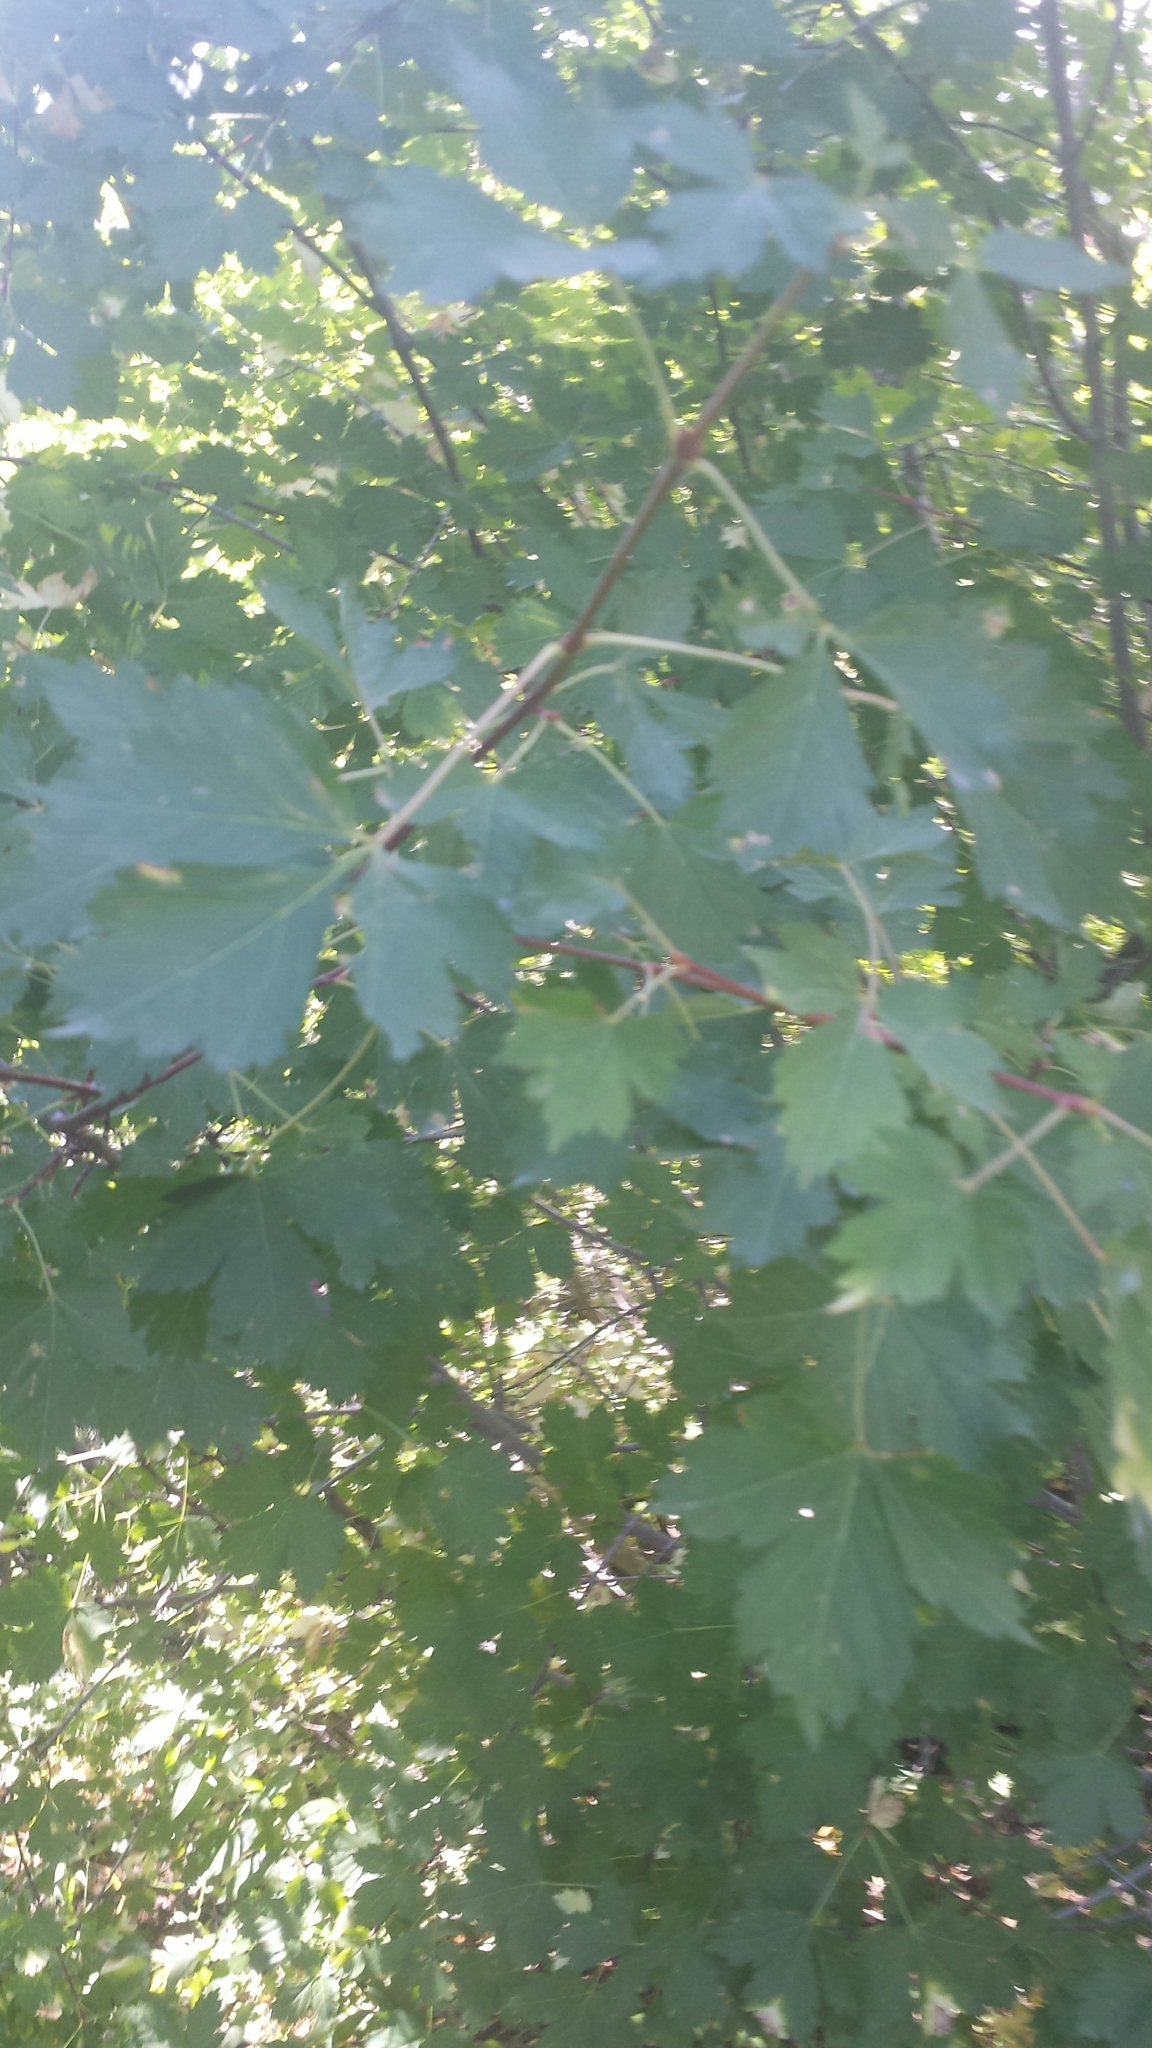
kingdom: Plantae
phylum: Tracheophyta
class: Magnoliopsida
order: Sapindales
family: Sapindaceae
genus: Acer
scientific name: Acer glabrum
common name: Rocky mountain maple
